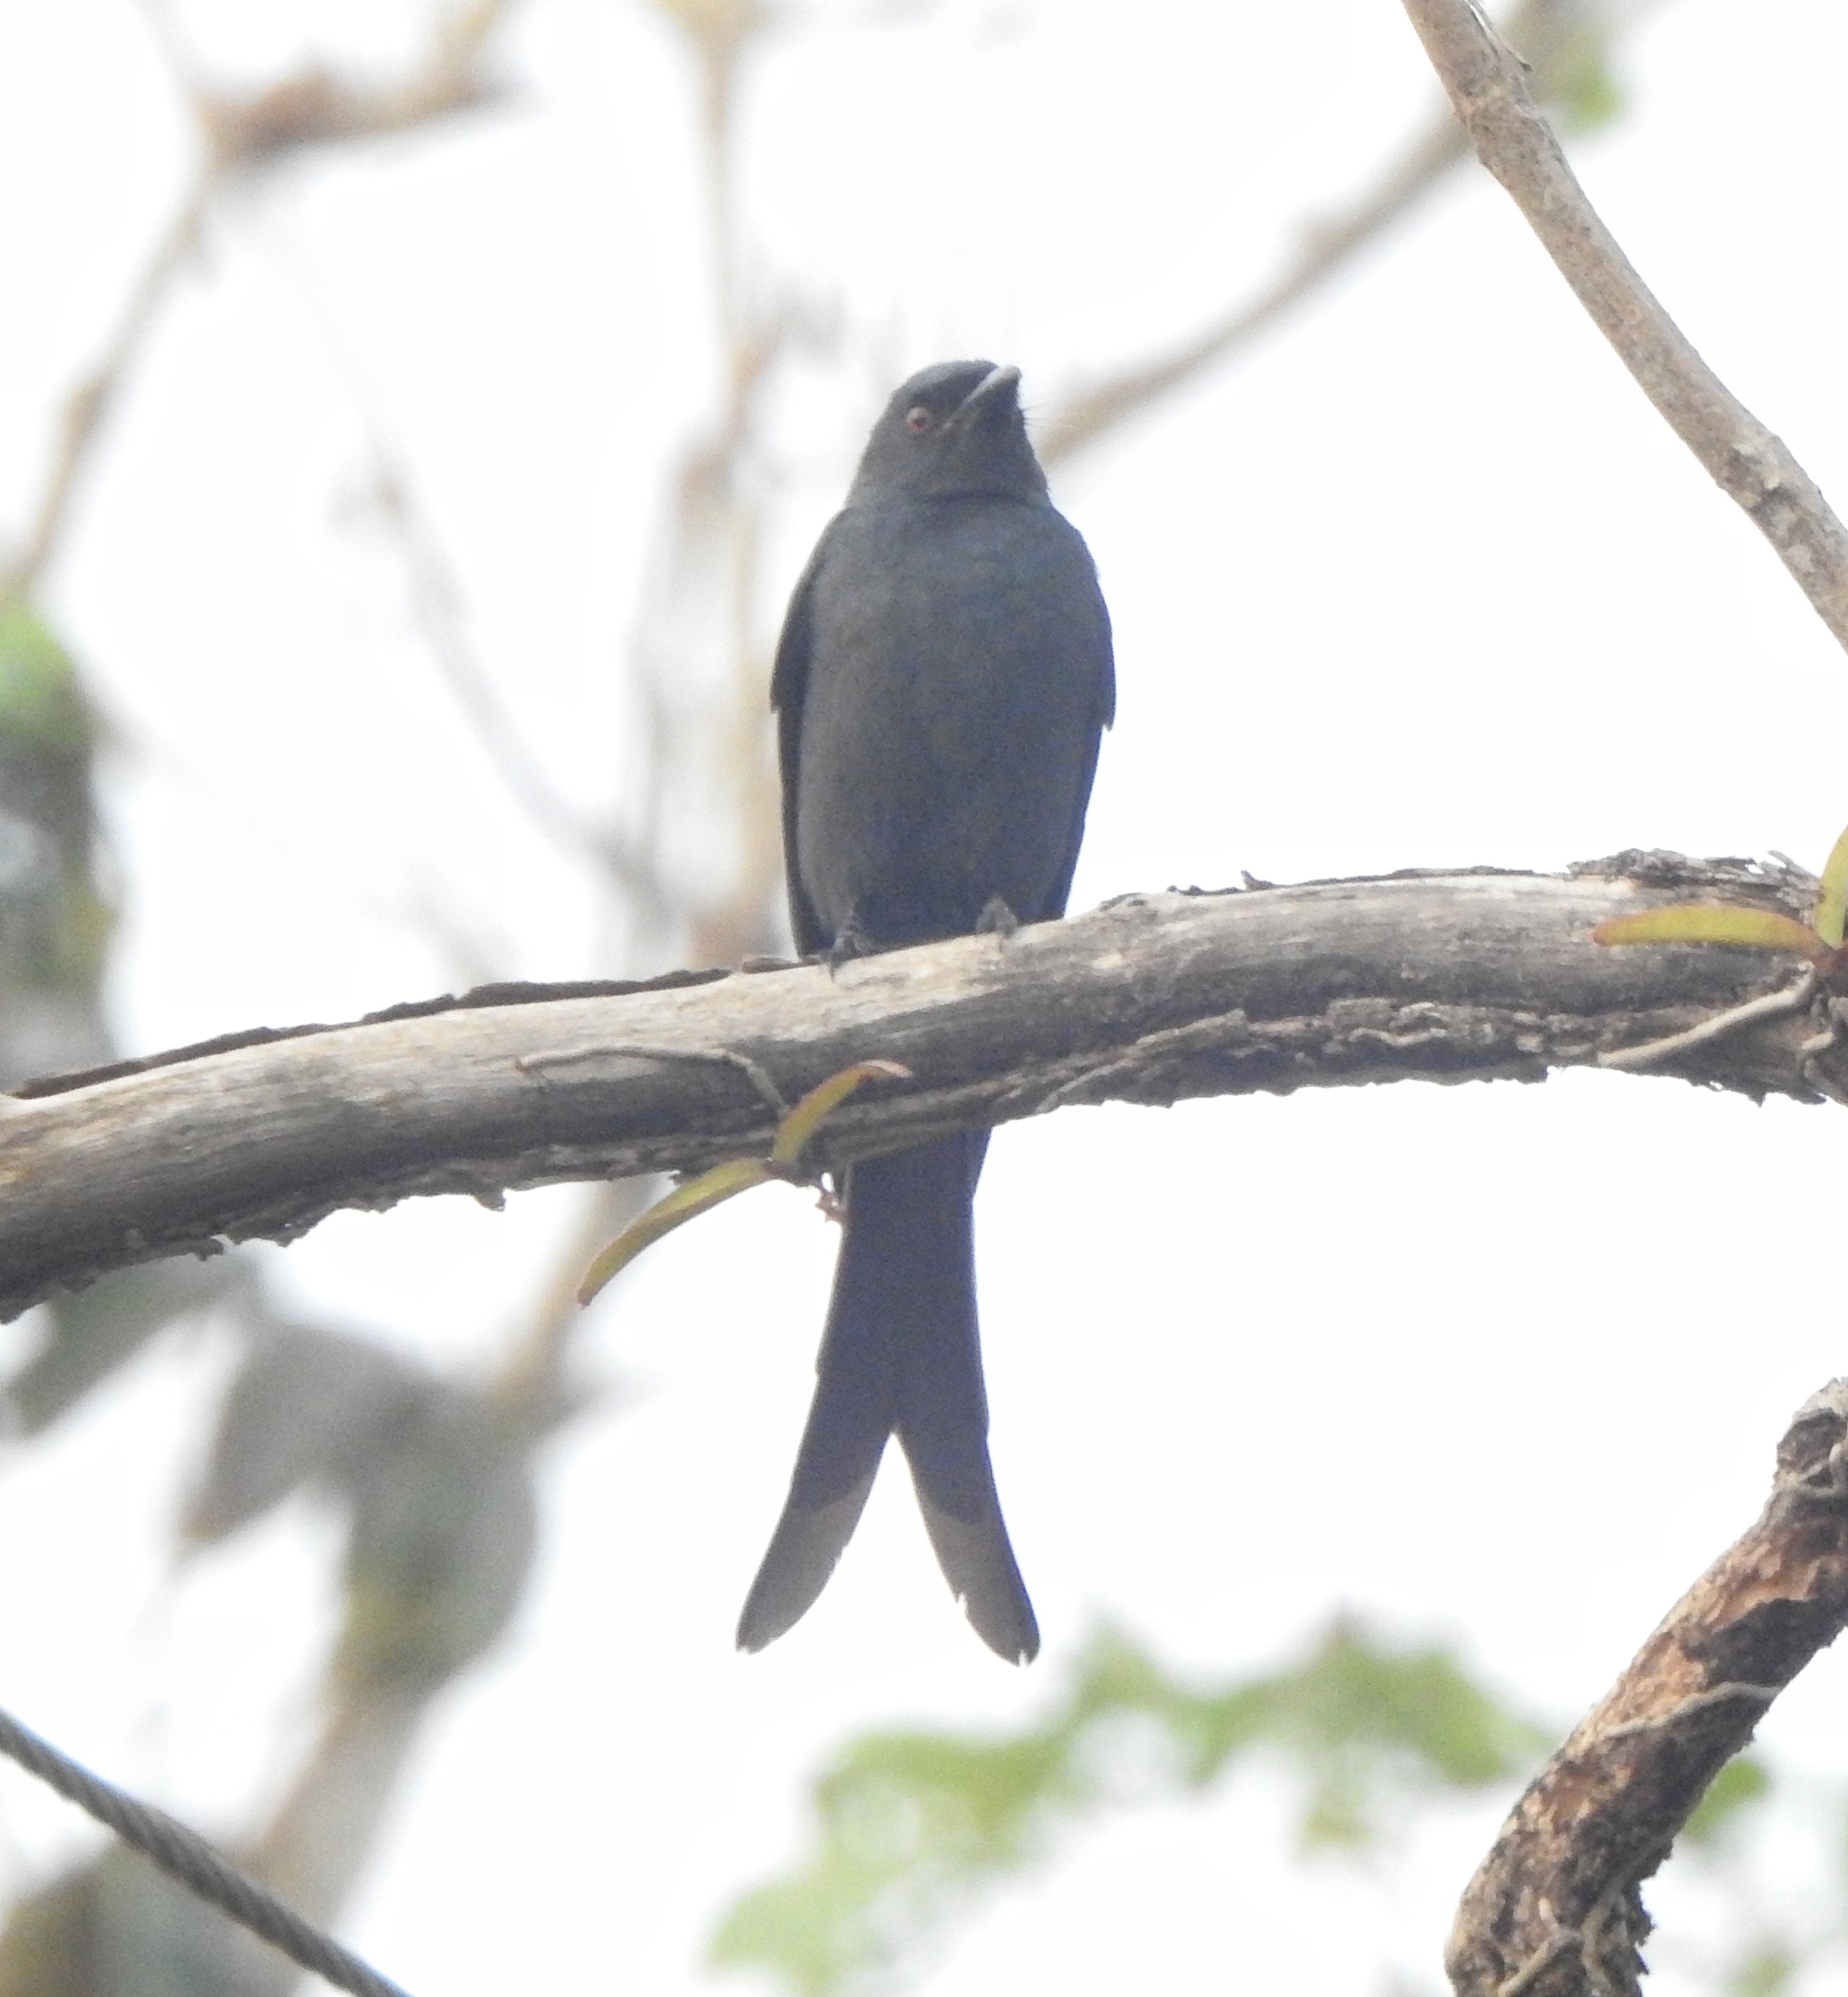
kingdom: Animalia
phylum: Chordata
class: Aves
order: Passeriformes
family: Dicruridae
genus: Dicrurus
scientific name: Dicrurus leucophaeus
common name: Ashy drongo
